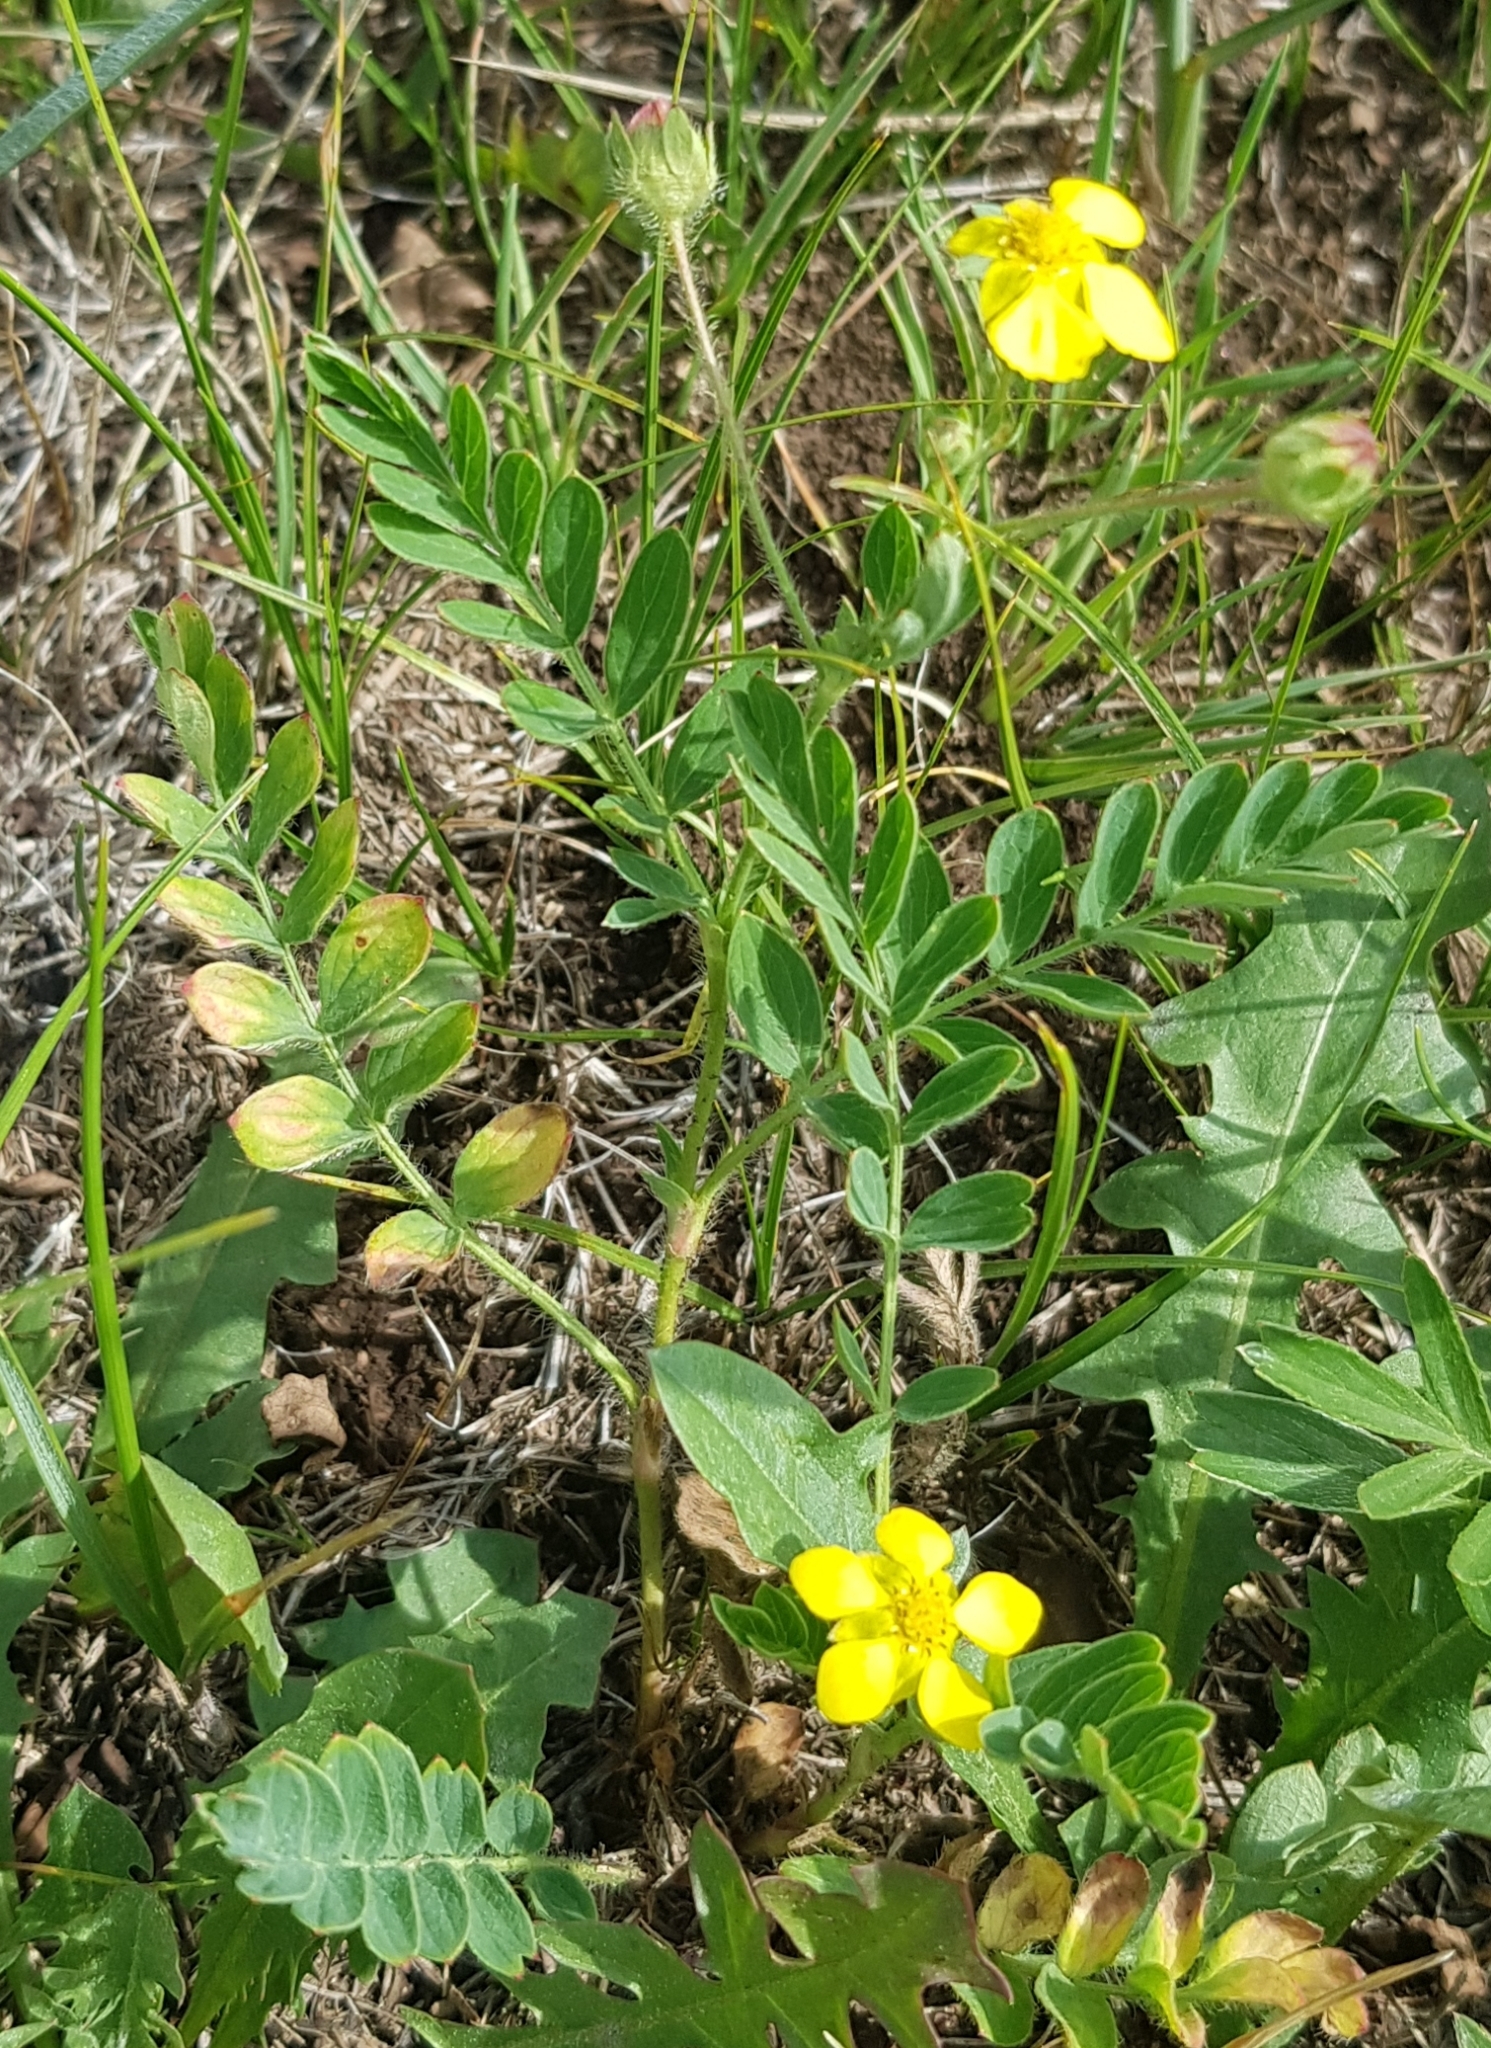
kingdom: Plantae
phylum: Tracheophyta
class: Magnoliopsida
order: Rosales
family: Rosaceae
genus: Sibbaldianthe
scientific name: Sibbaldianthe bifurca
